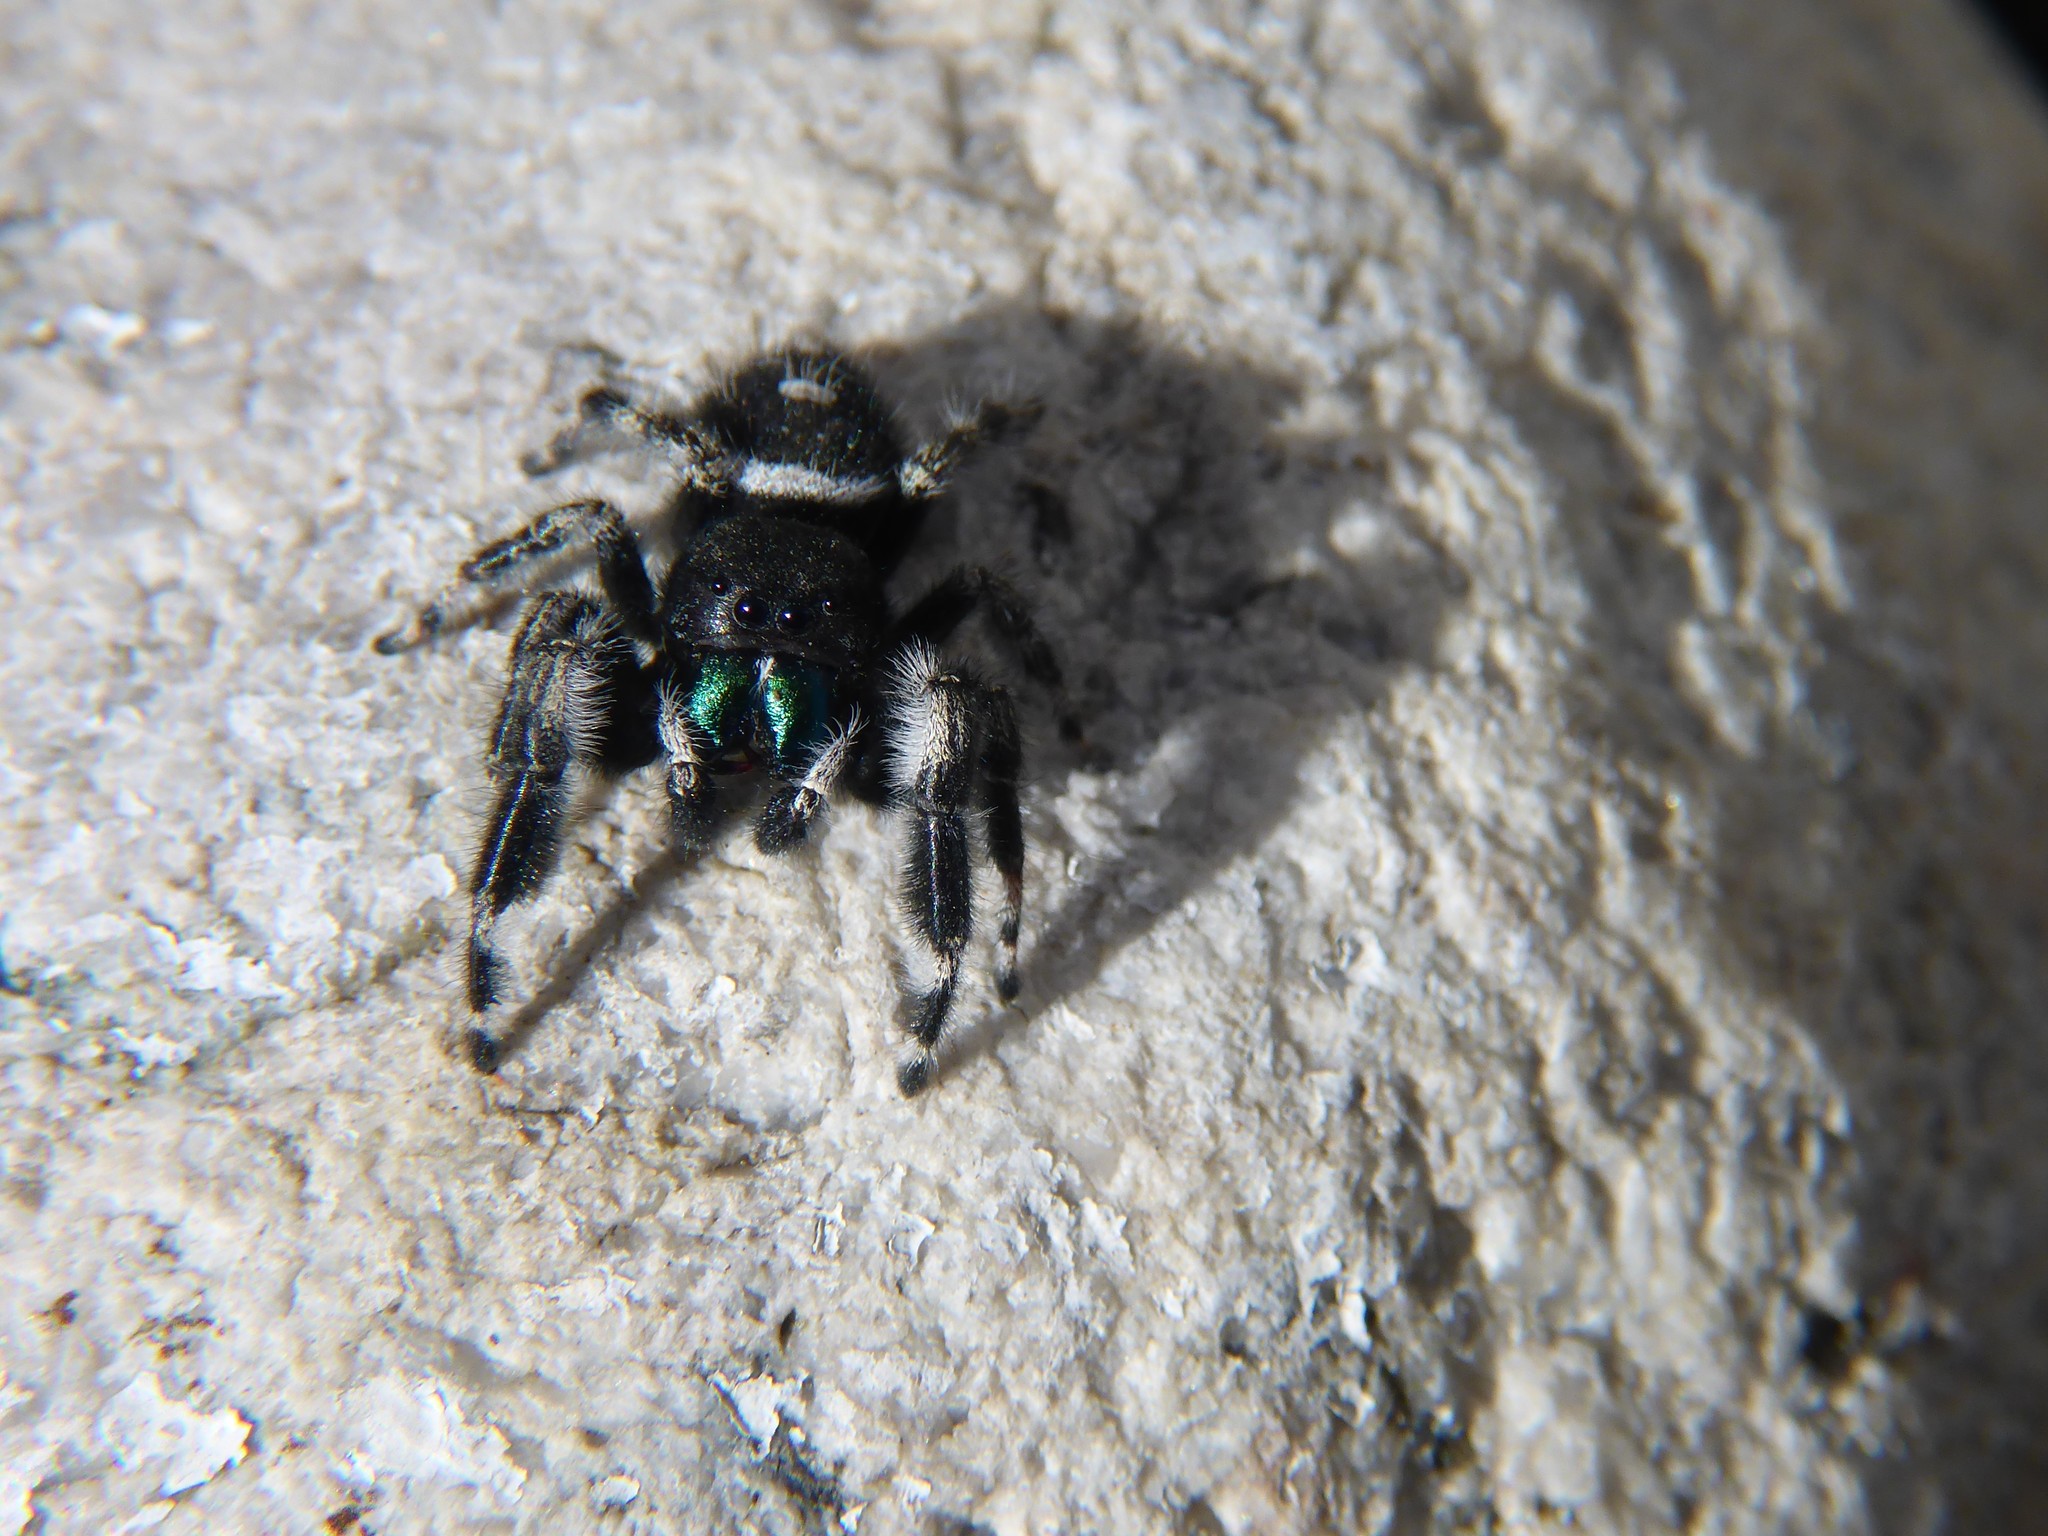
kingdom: Animalia
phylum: Arthropoda
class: Arachnida
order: Araneae
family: Salticidae
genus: Phidippus
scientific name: Phidippus audax
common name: Bold jumper
